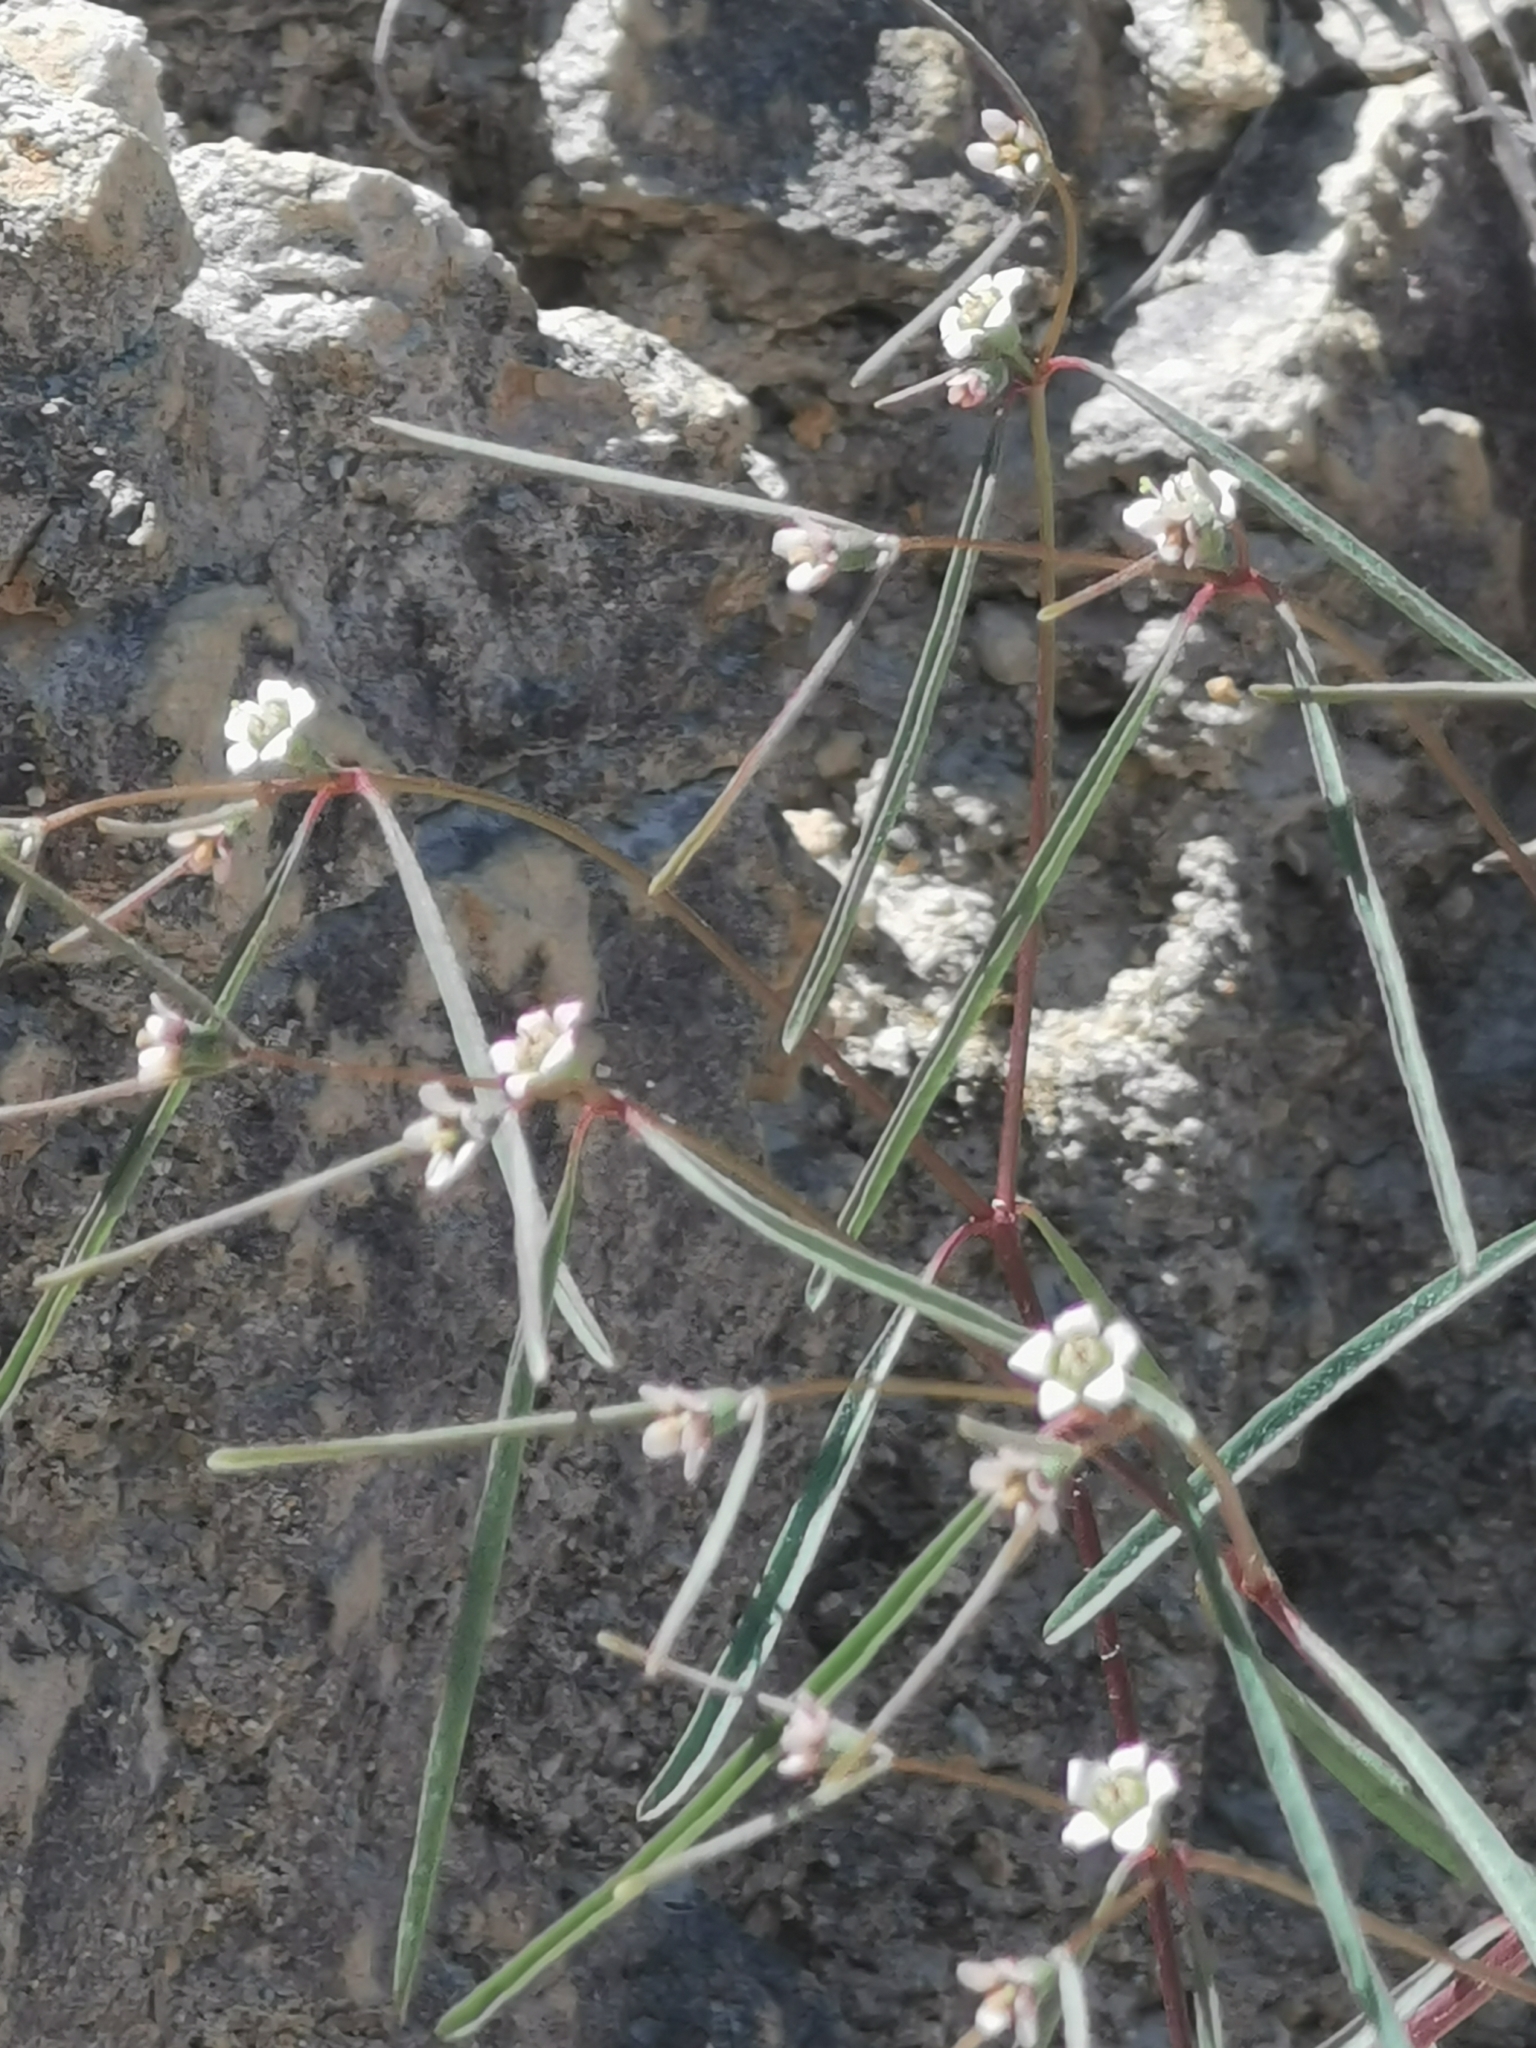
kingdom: Plantae
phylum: Tracheophyta
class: Magnoliopsida
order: Malpighiales
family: Euphorbiaceae
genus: Euphorbia
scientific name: Euphorbia sphaerorhiza
